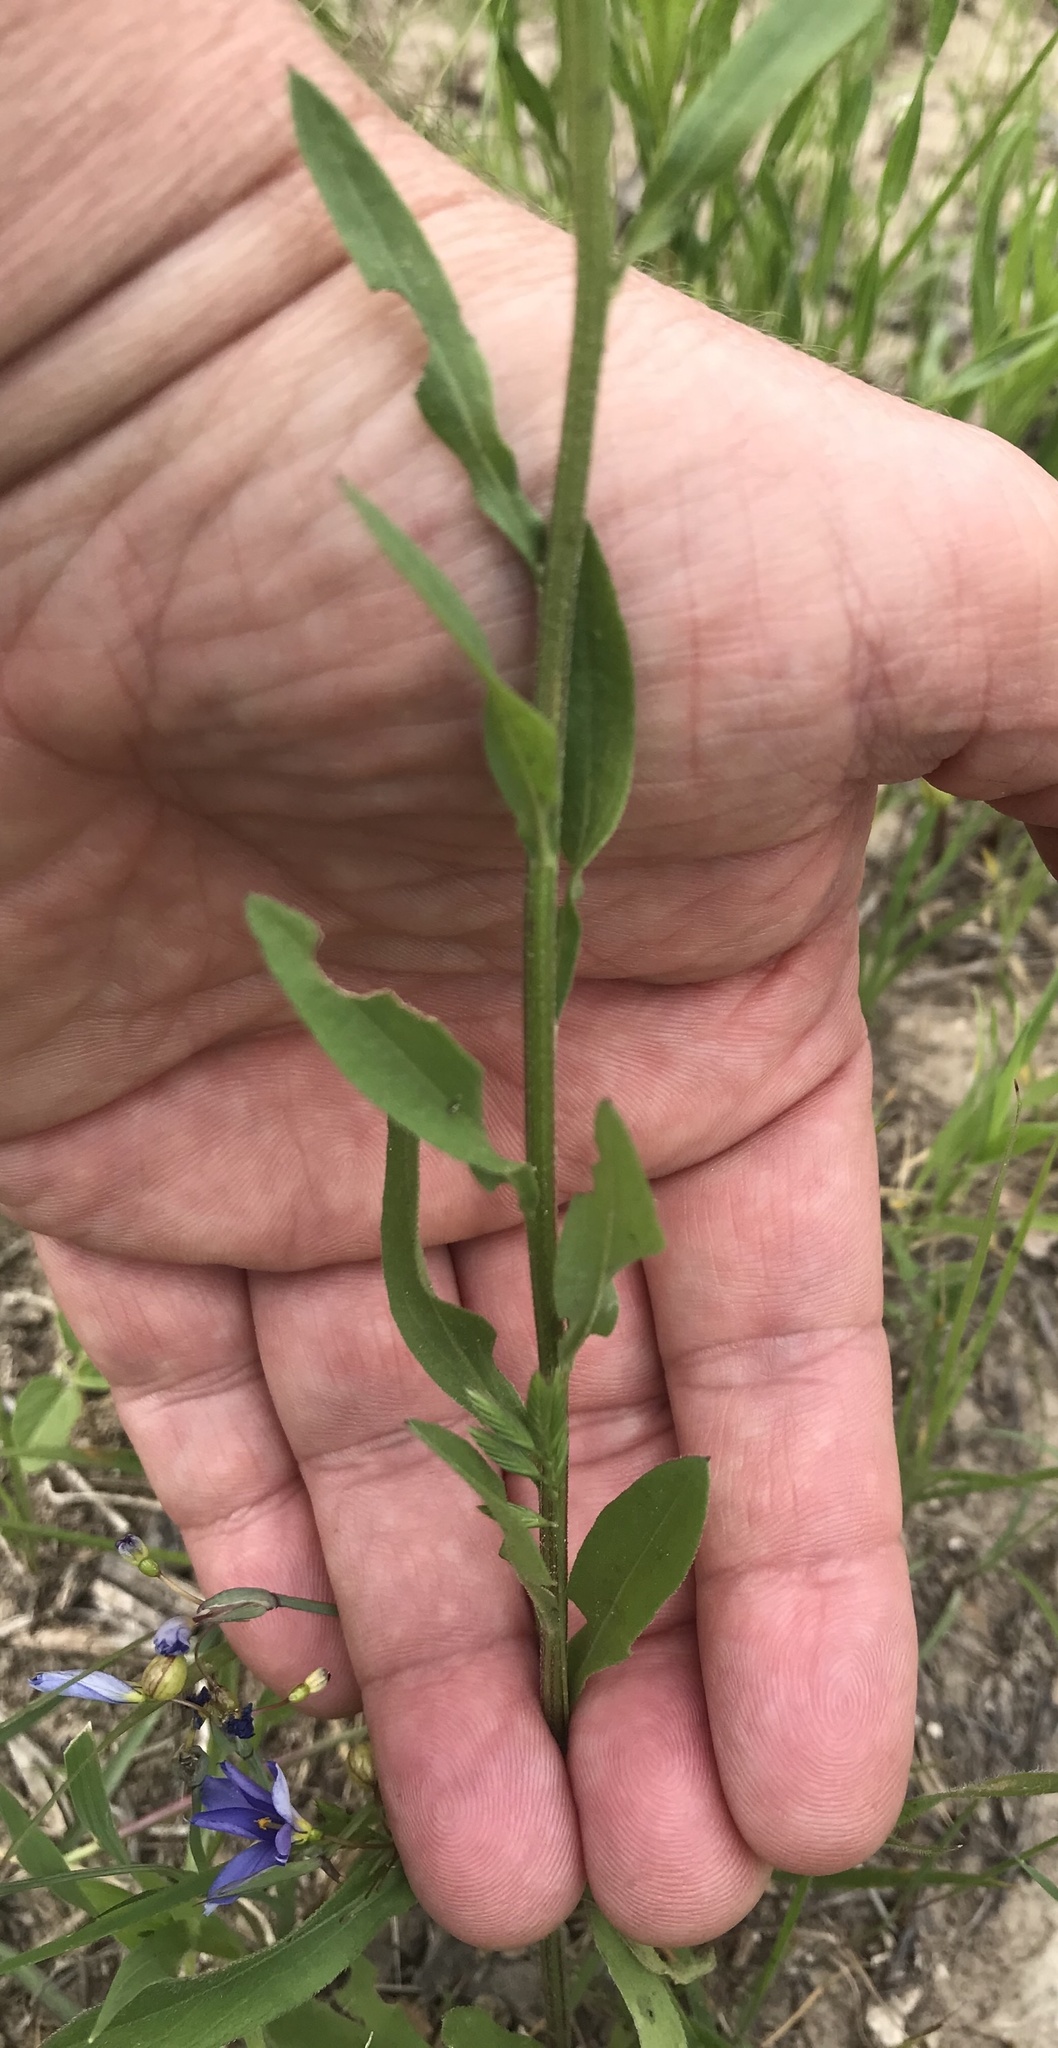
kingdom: Plantae
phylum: Tracheophyta
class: Magnoliopsida
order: Asterales
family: Asteraceae
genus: Erigeron
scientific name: Erigeron strigosus
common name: Common eastern fleabane
